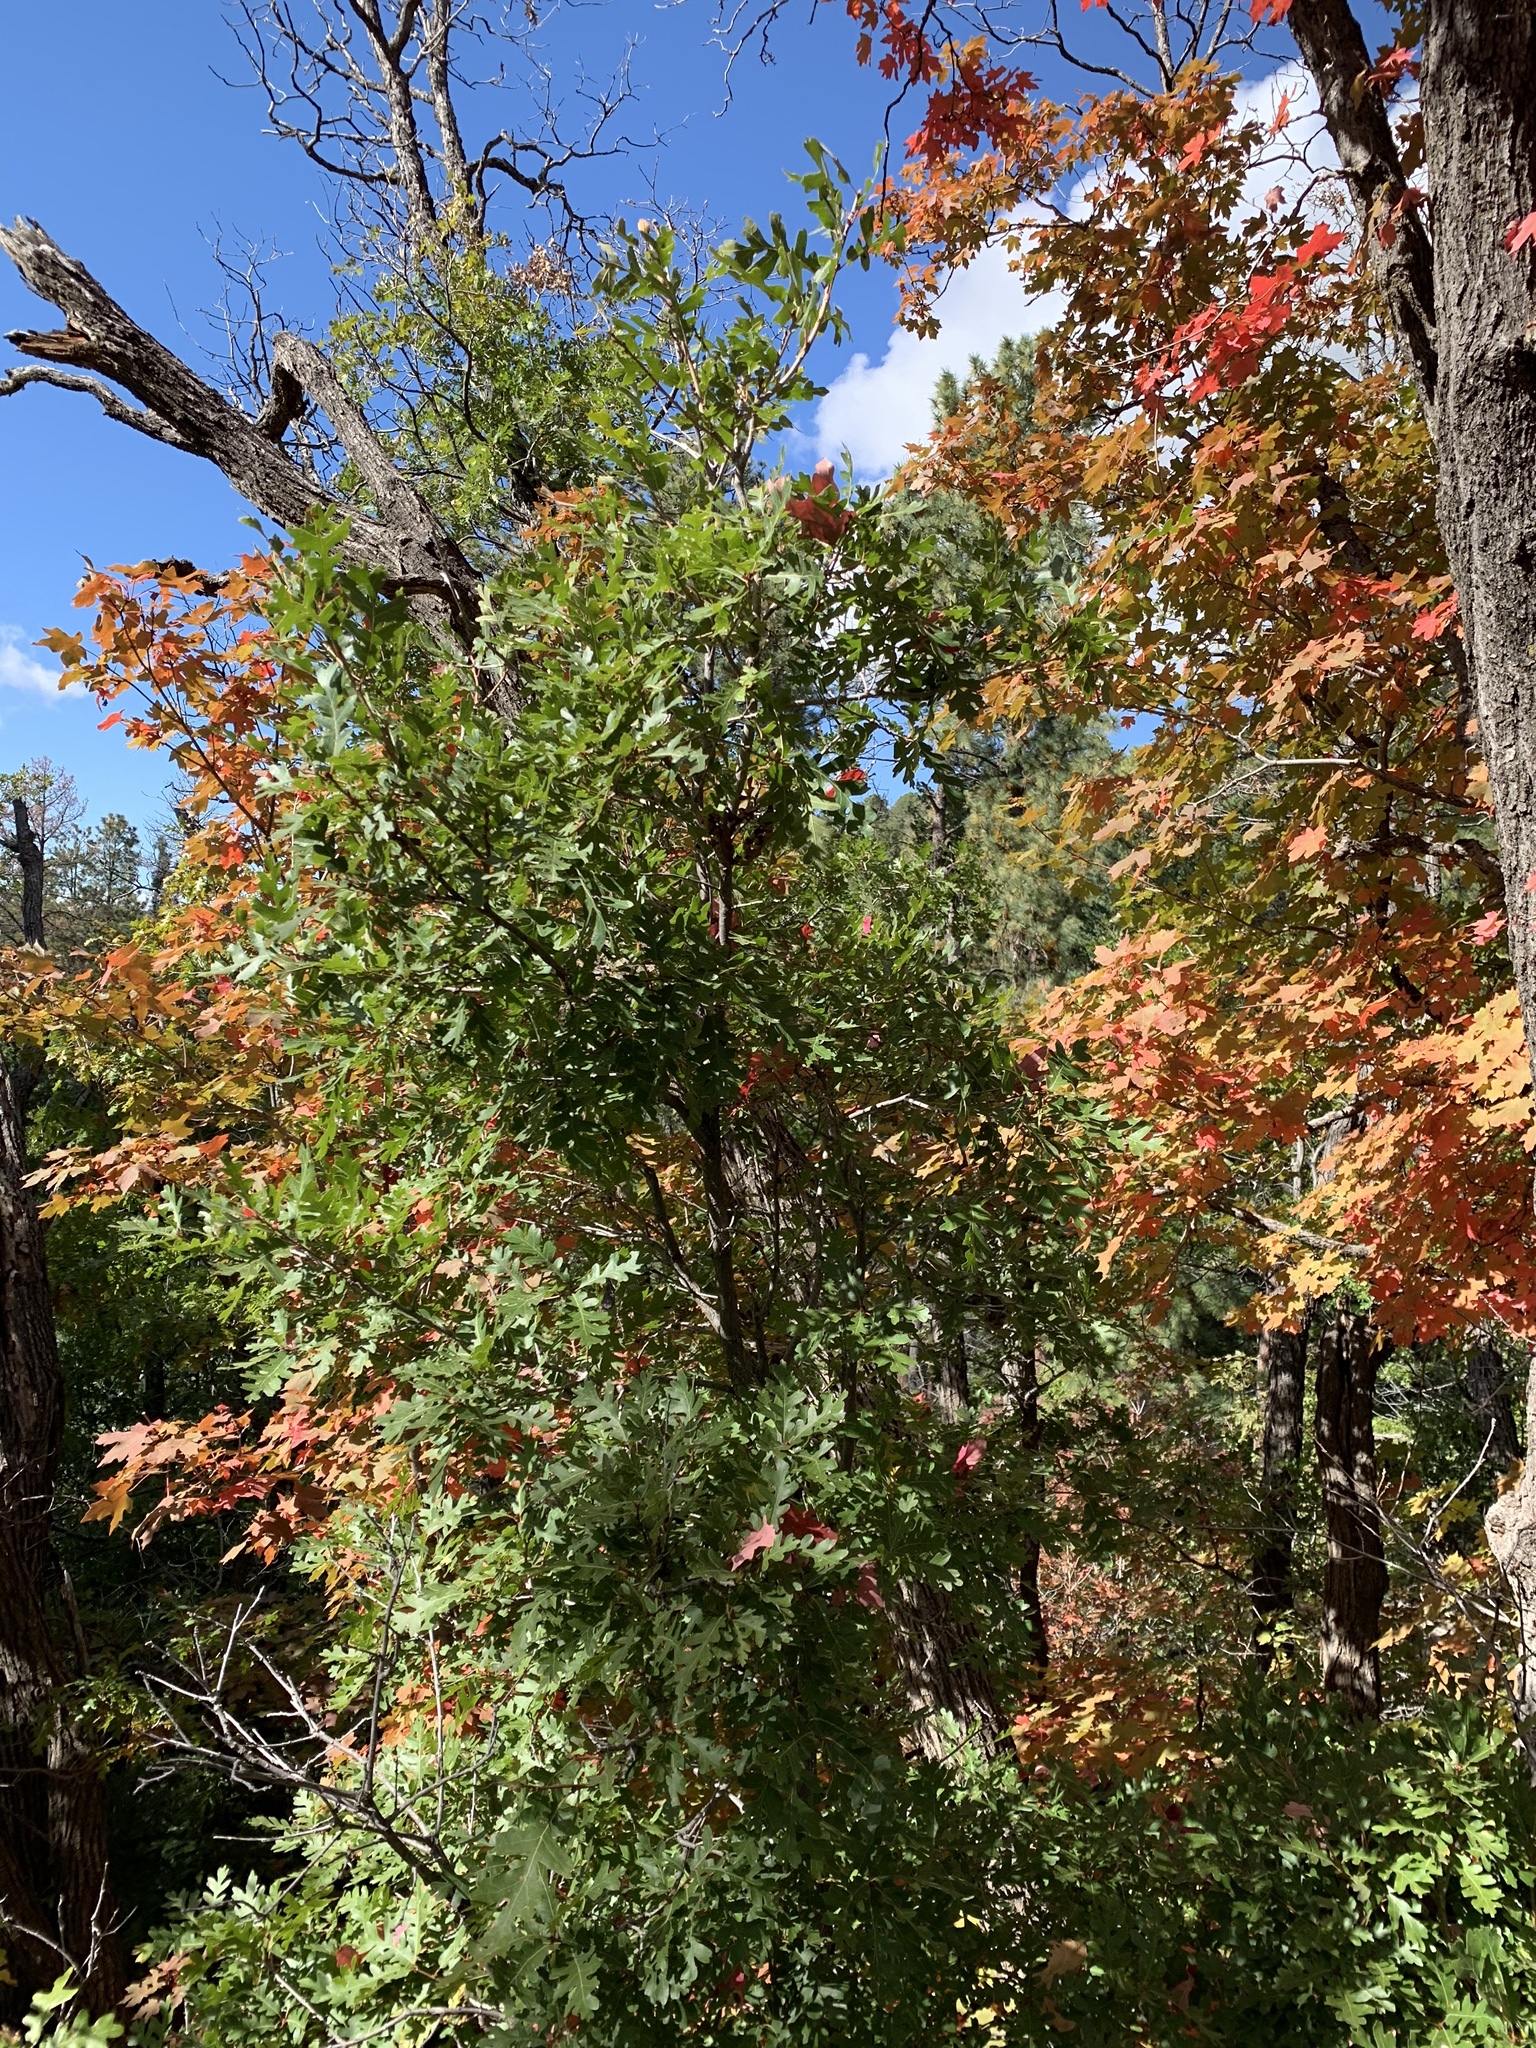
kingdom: Plantae
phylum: Tracheophyta
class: Magnoliopsida
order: Fagales
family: Fagaceae
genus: Quercus
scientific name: Quercus gambelii
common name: Gambel oak
